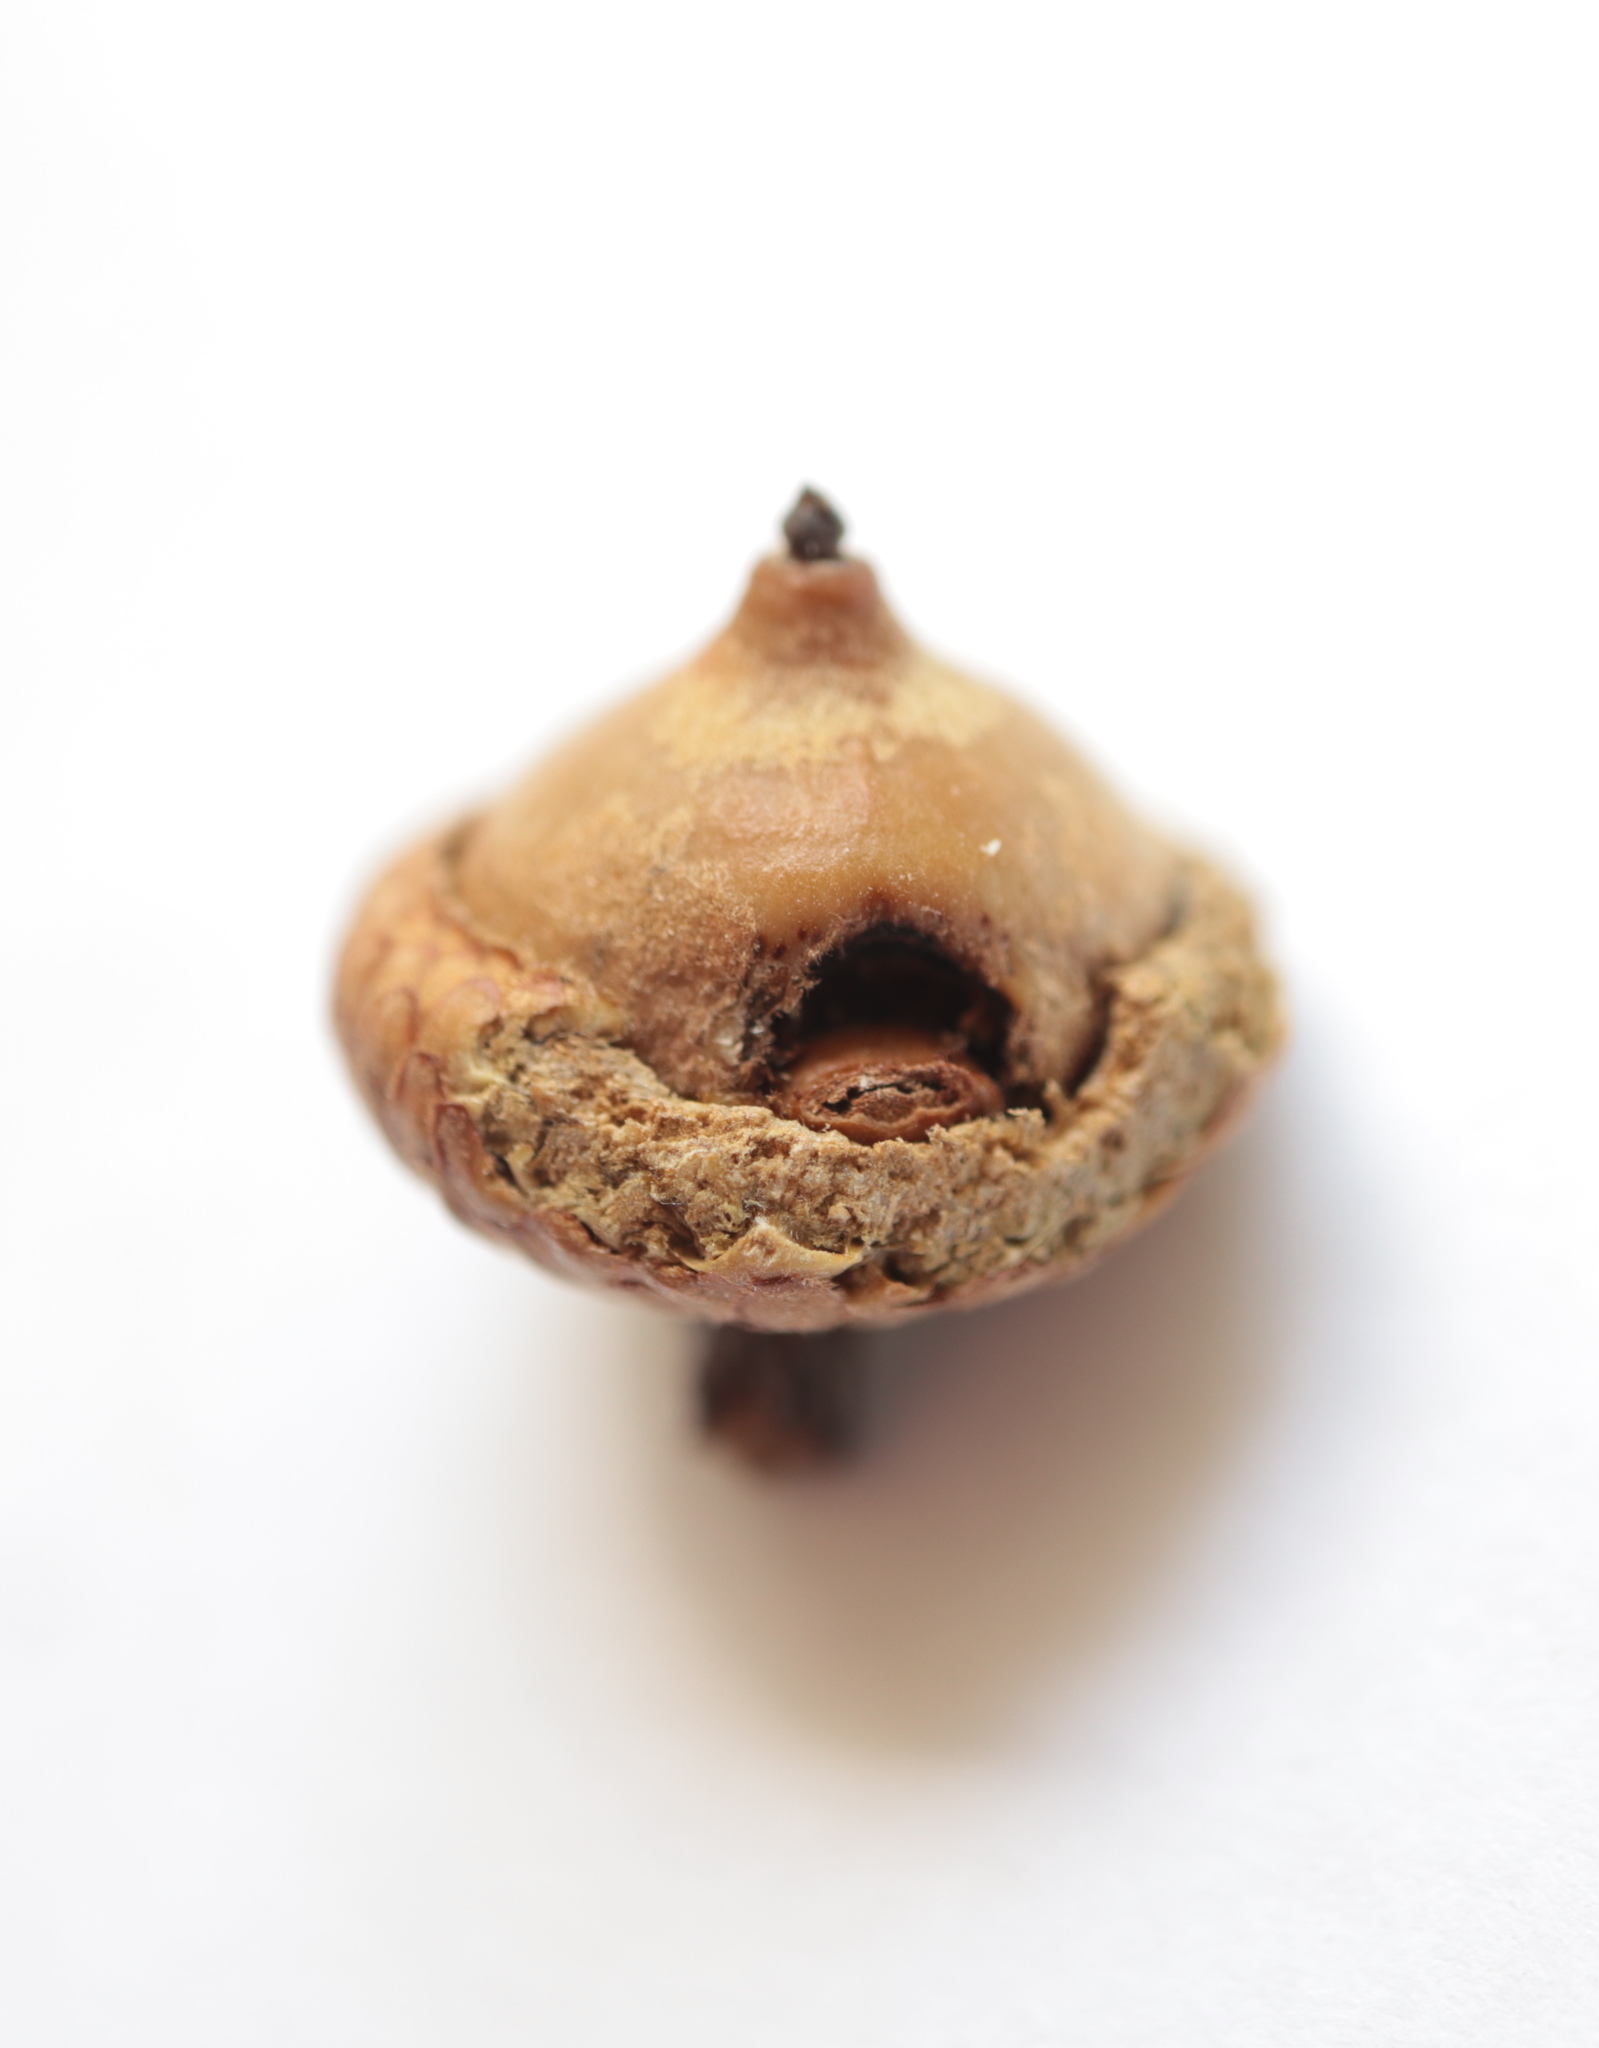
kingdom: Animalia
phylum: Arthropoda
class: Insecta
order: Hymenoptera
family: Cynipidae
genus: Callirhytis
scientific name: Callirhytis
